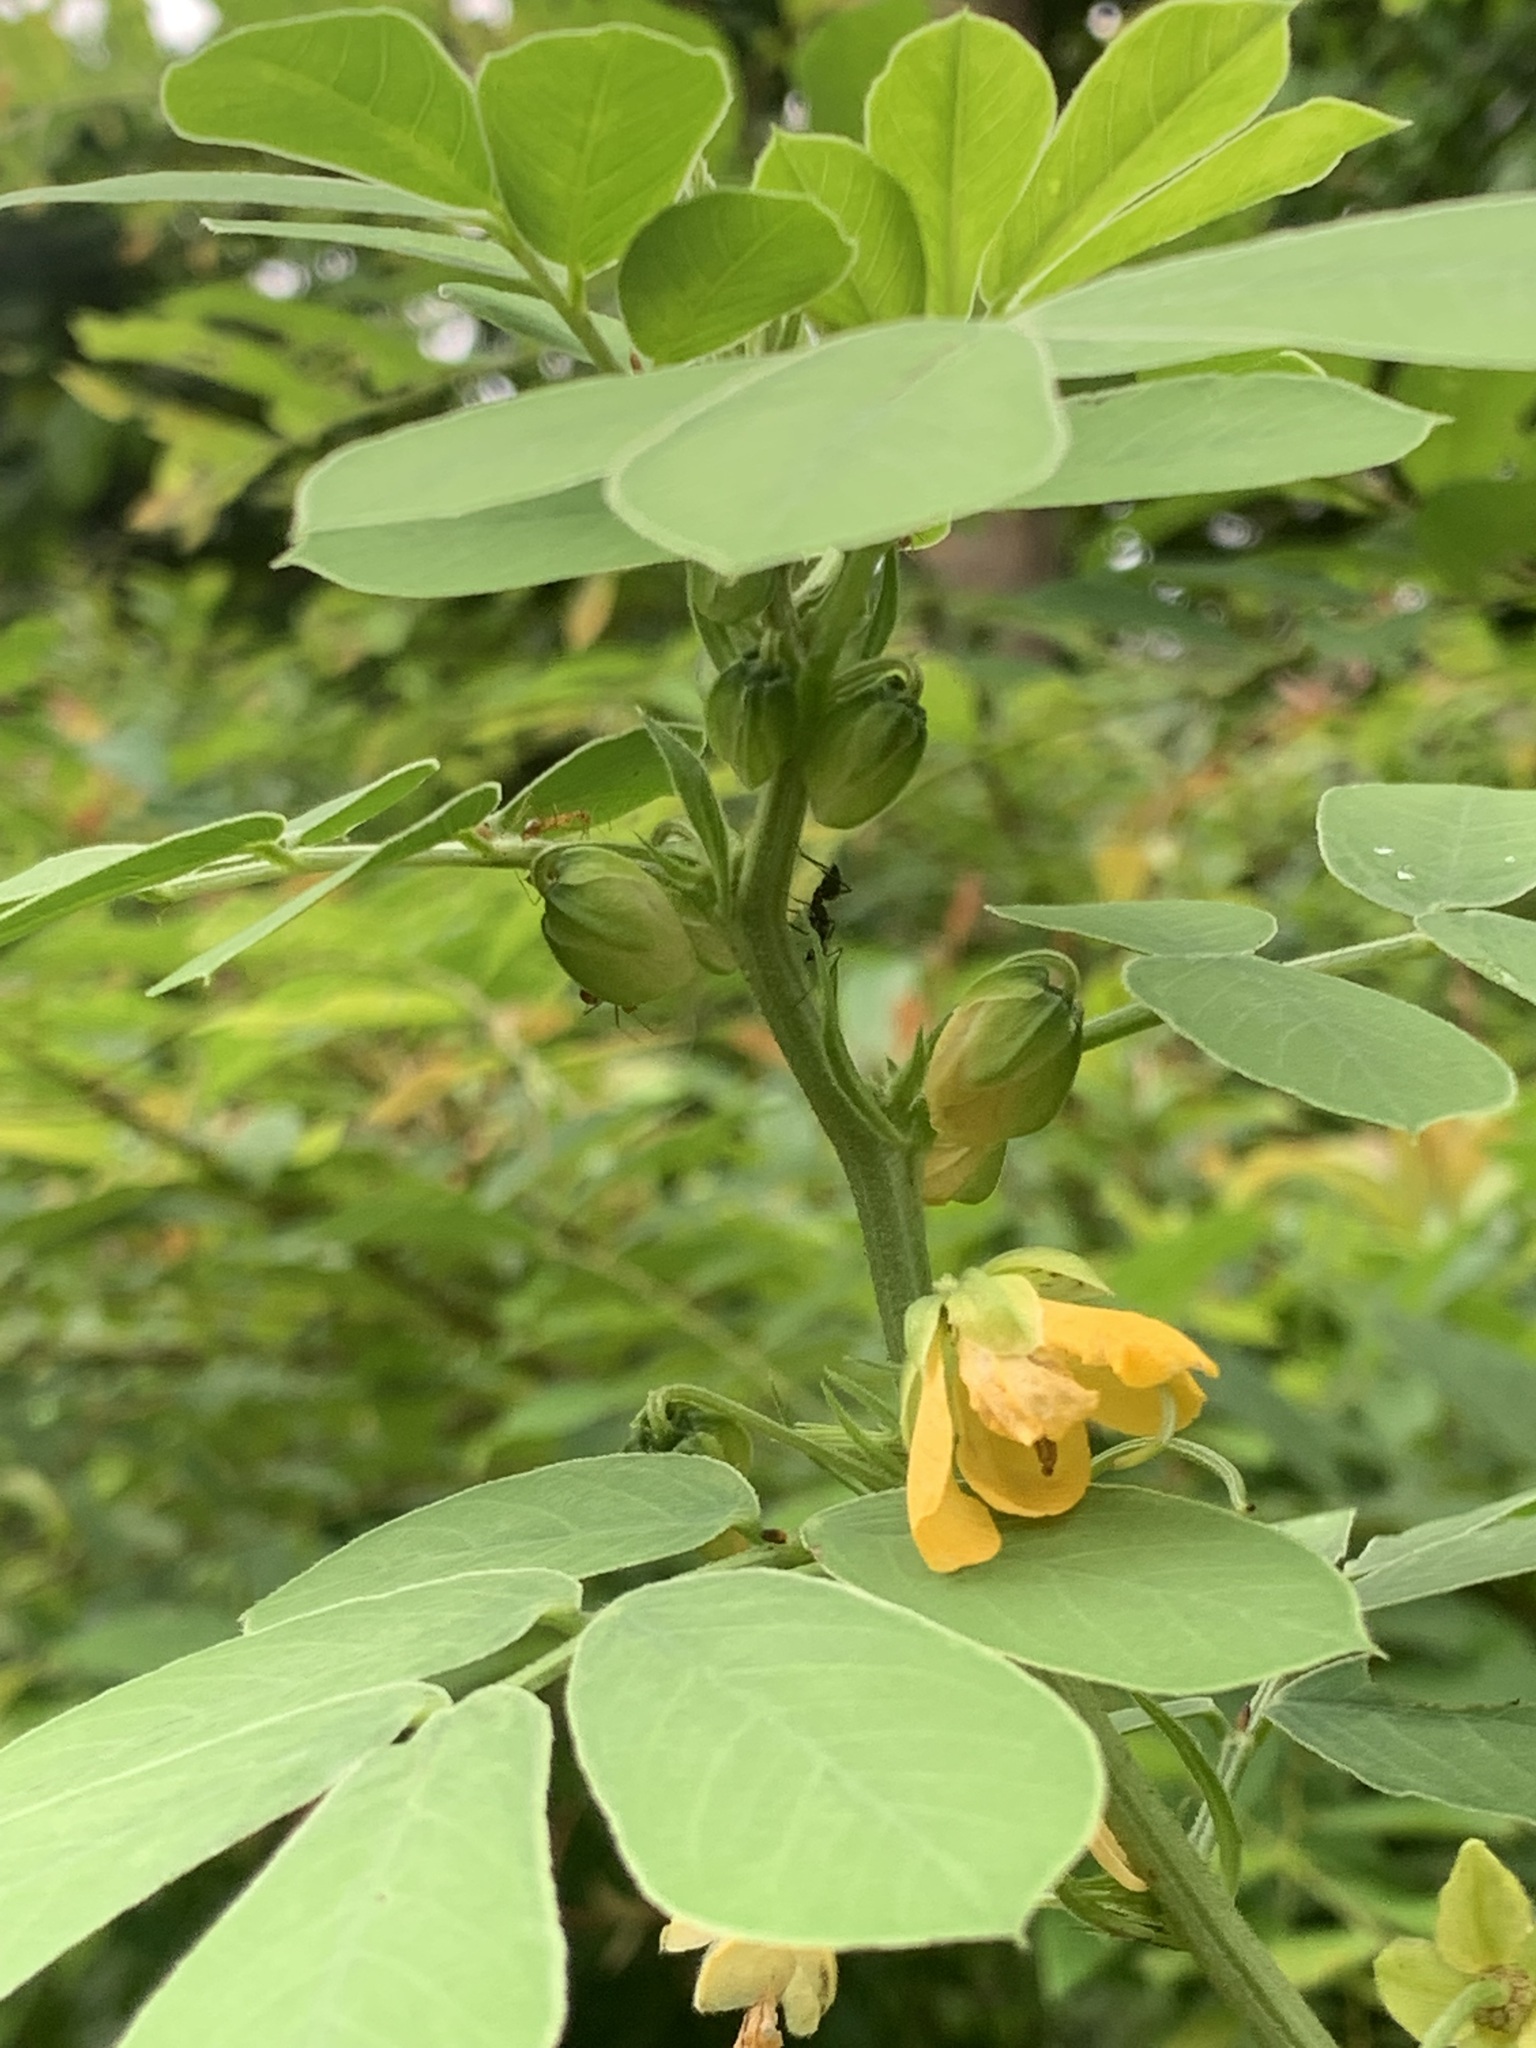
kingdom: Plantae
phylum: Tracheophyta
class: Magnoliopsida
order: Fabales
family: Fabaceae
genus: Senna
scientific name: Senna obtusifolia
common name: Java-bean
